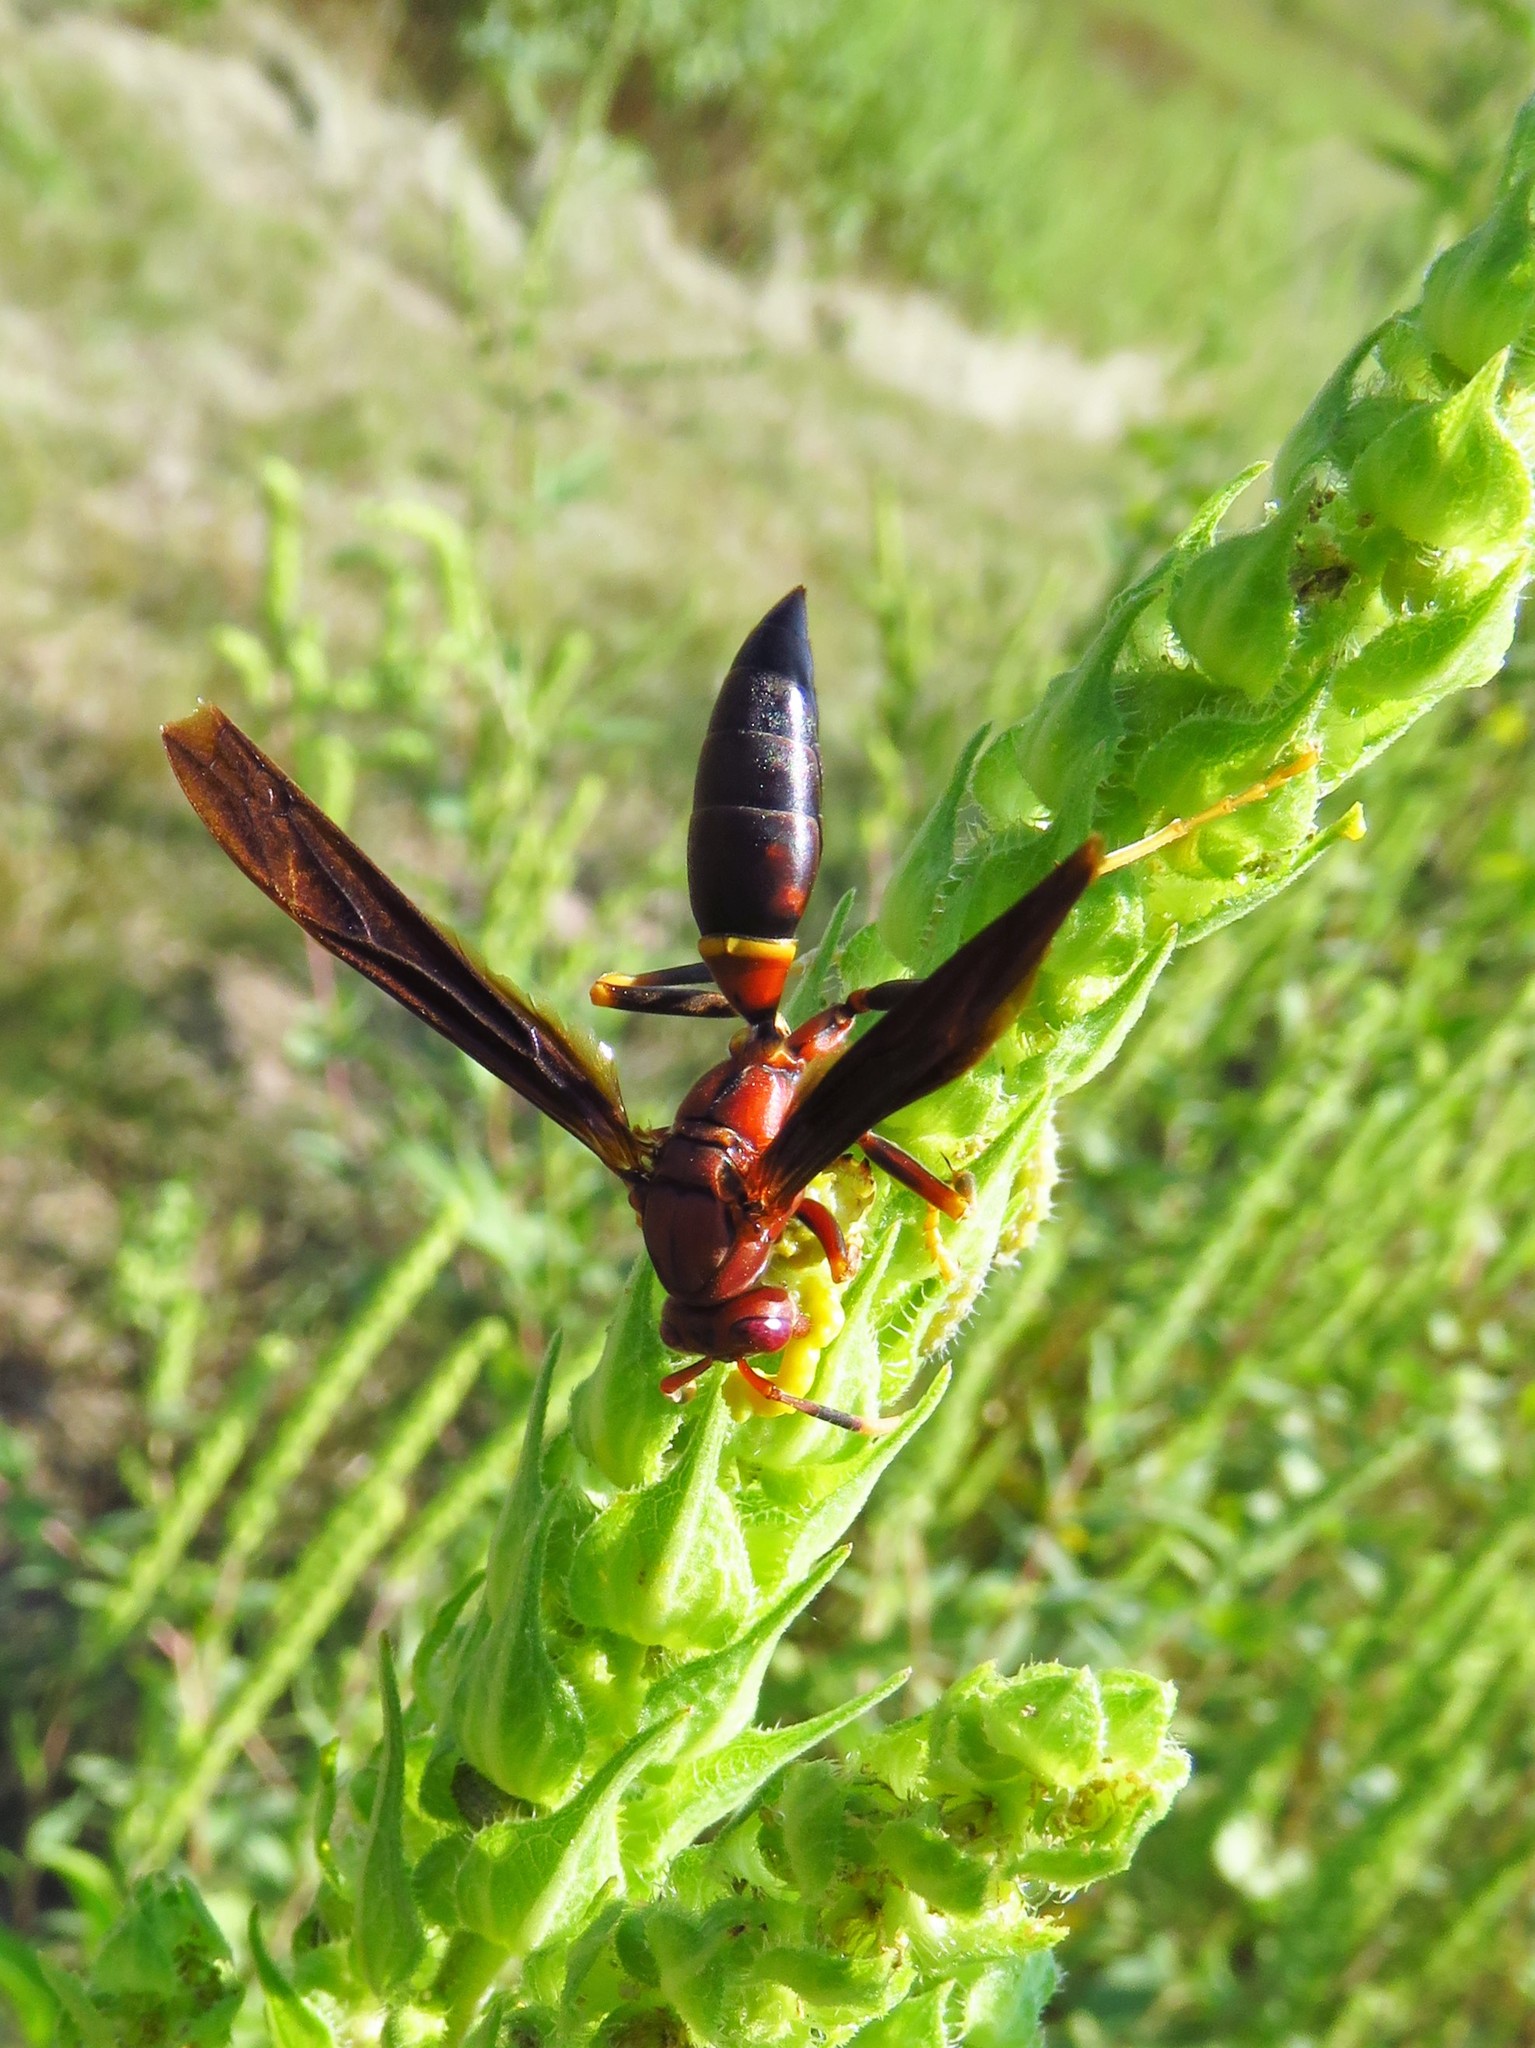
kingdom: Animalia
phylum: Arthropoda
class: Insecta
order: Hymenoptera
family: Eumenidae
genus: Polistes
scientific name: Polistes annularis
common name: Ringed paper wasp
